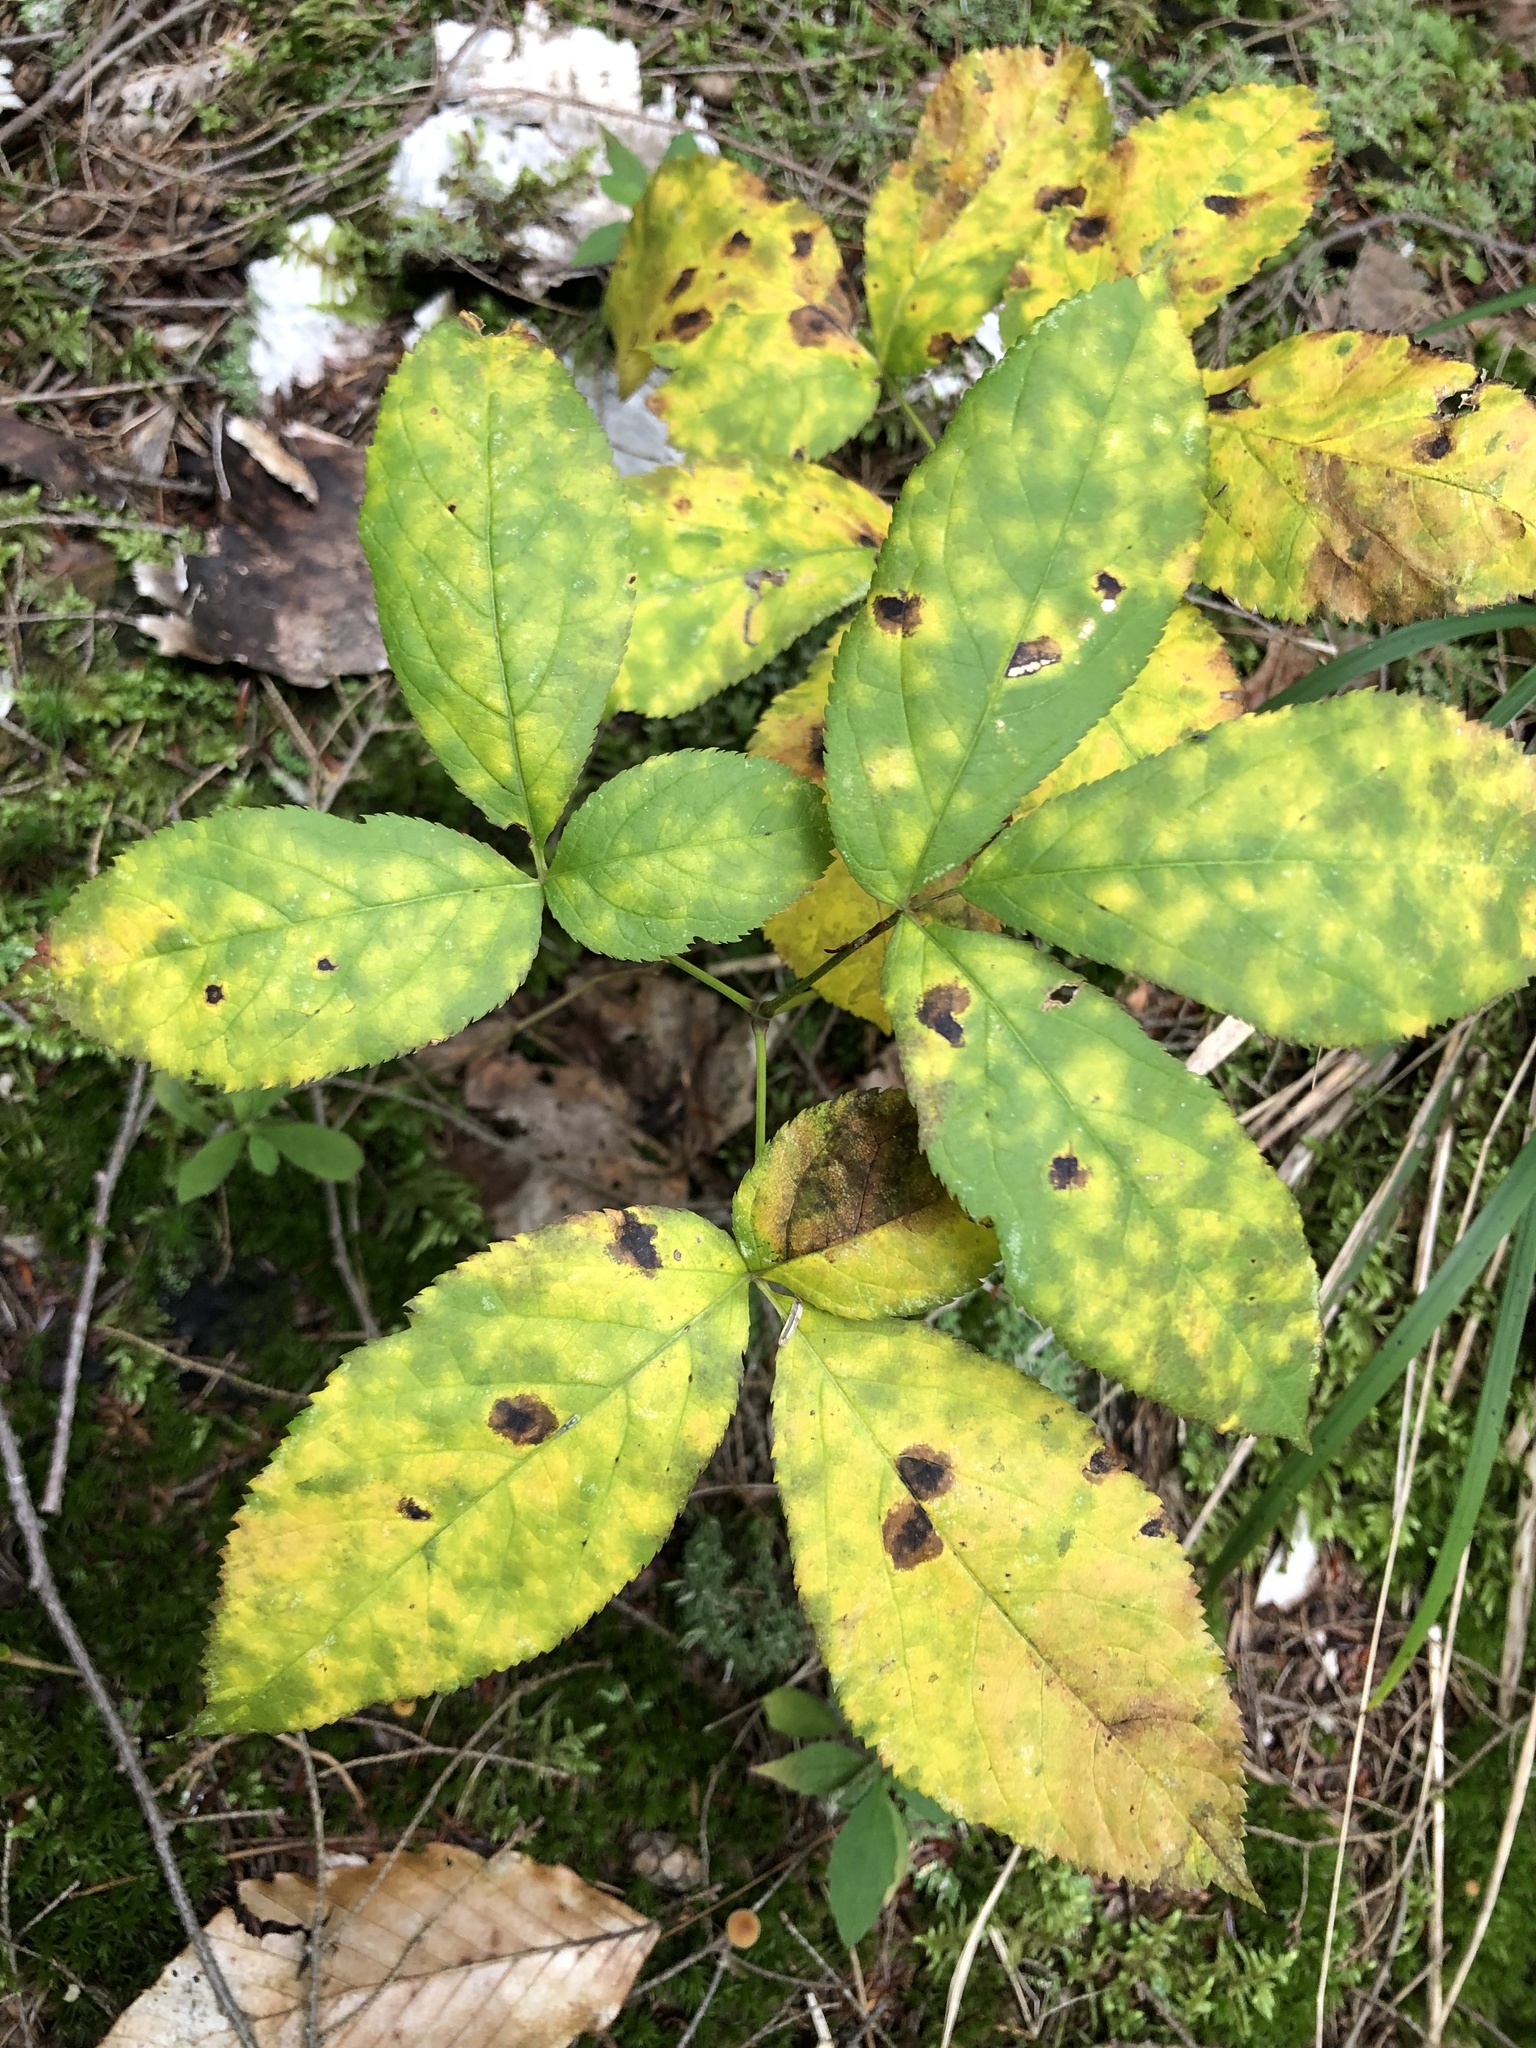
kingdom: Plantae
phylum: Tracheophyta
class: Magnoliopsida
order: Apiales
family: Araliaceae
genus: Aralia
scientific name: Aralia nudicaulis
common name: Wild sarsaparilla
